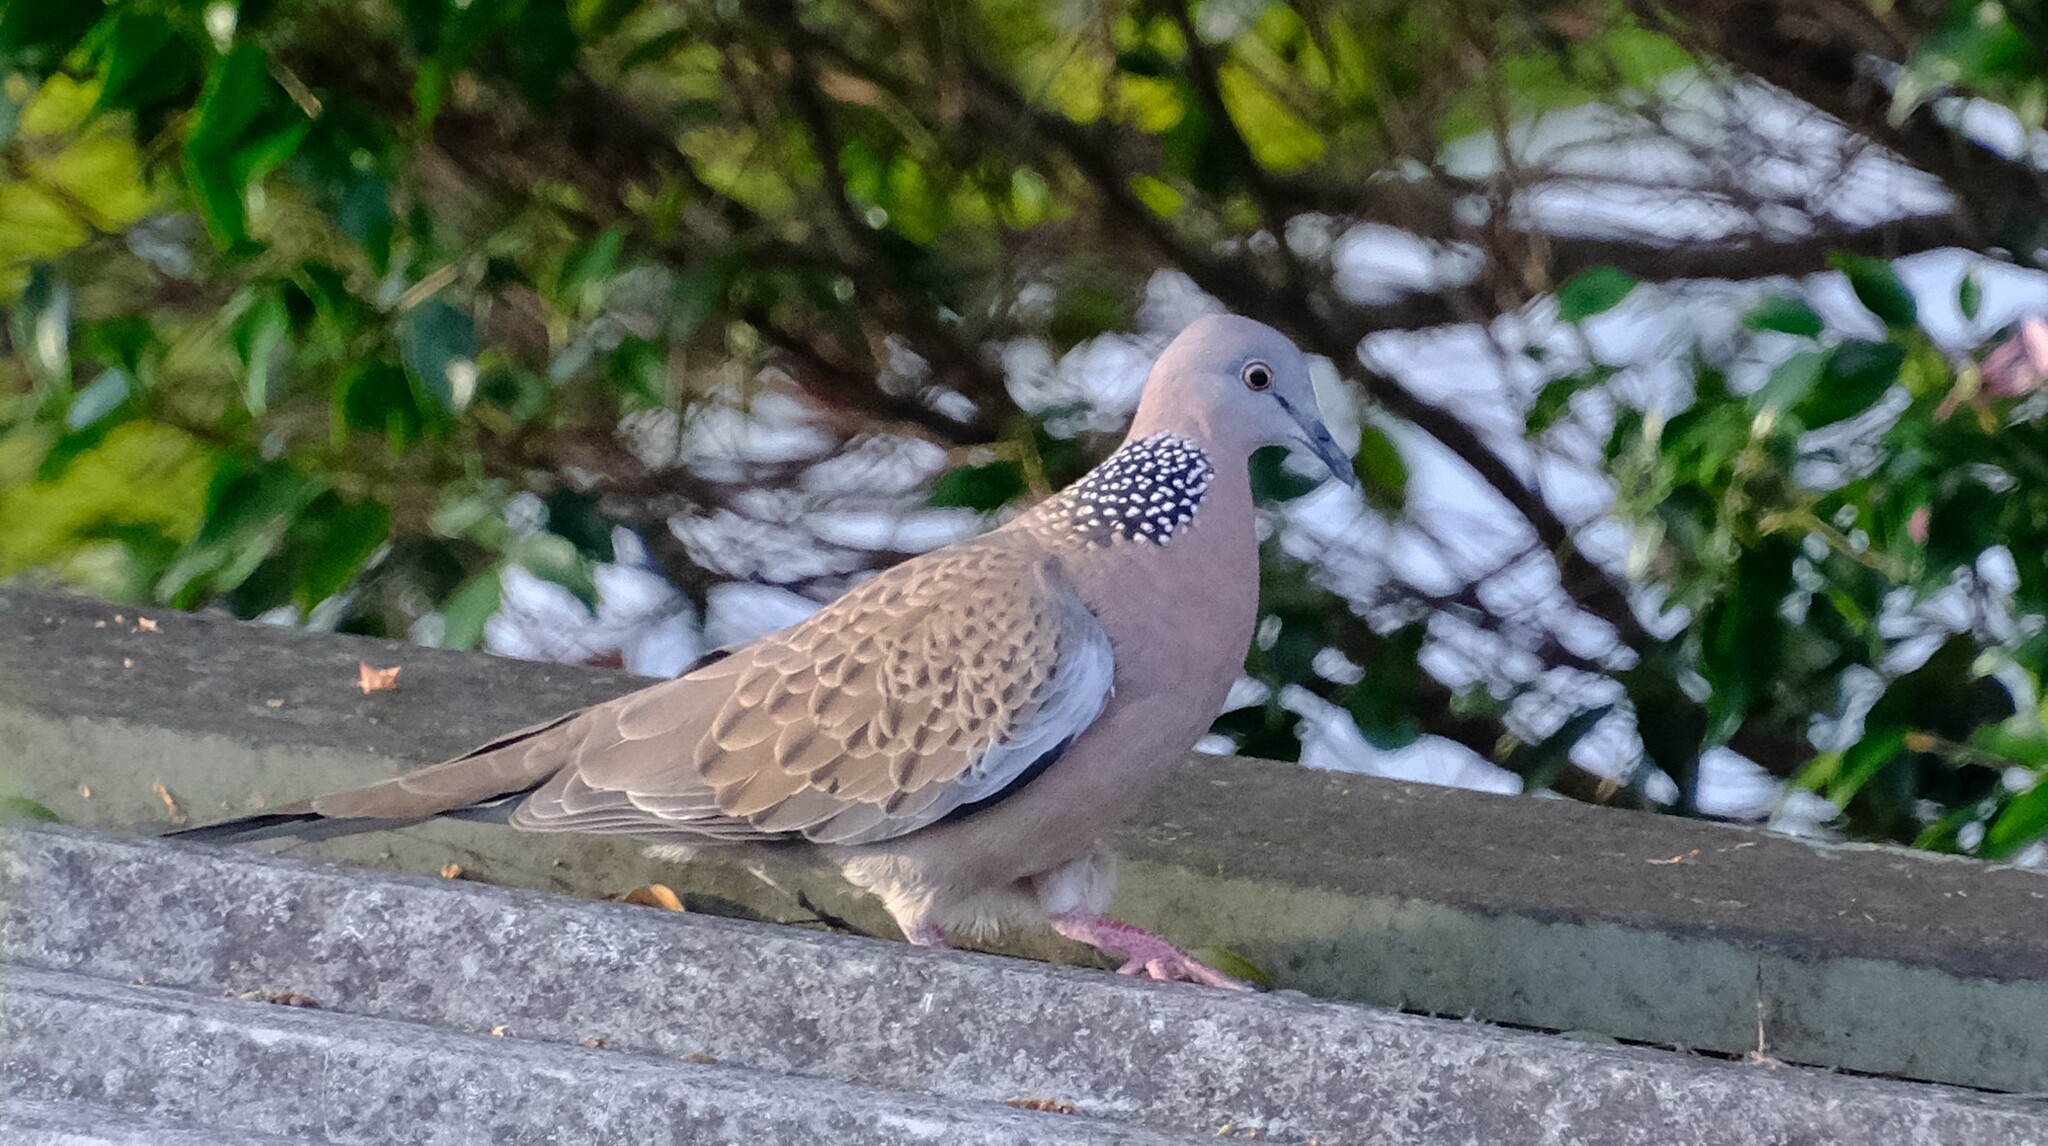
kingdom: Animalia
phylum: Chordata
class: Aves
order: Columbiformes
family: Columbidae
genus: Spilopelia
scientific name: Spilopelia chinensis
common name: Spotted dove
